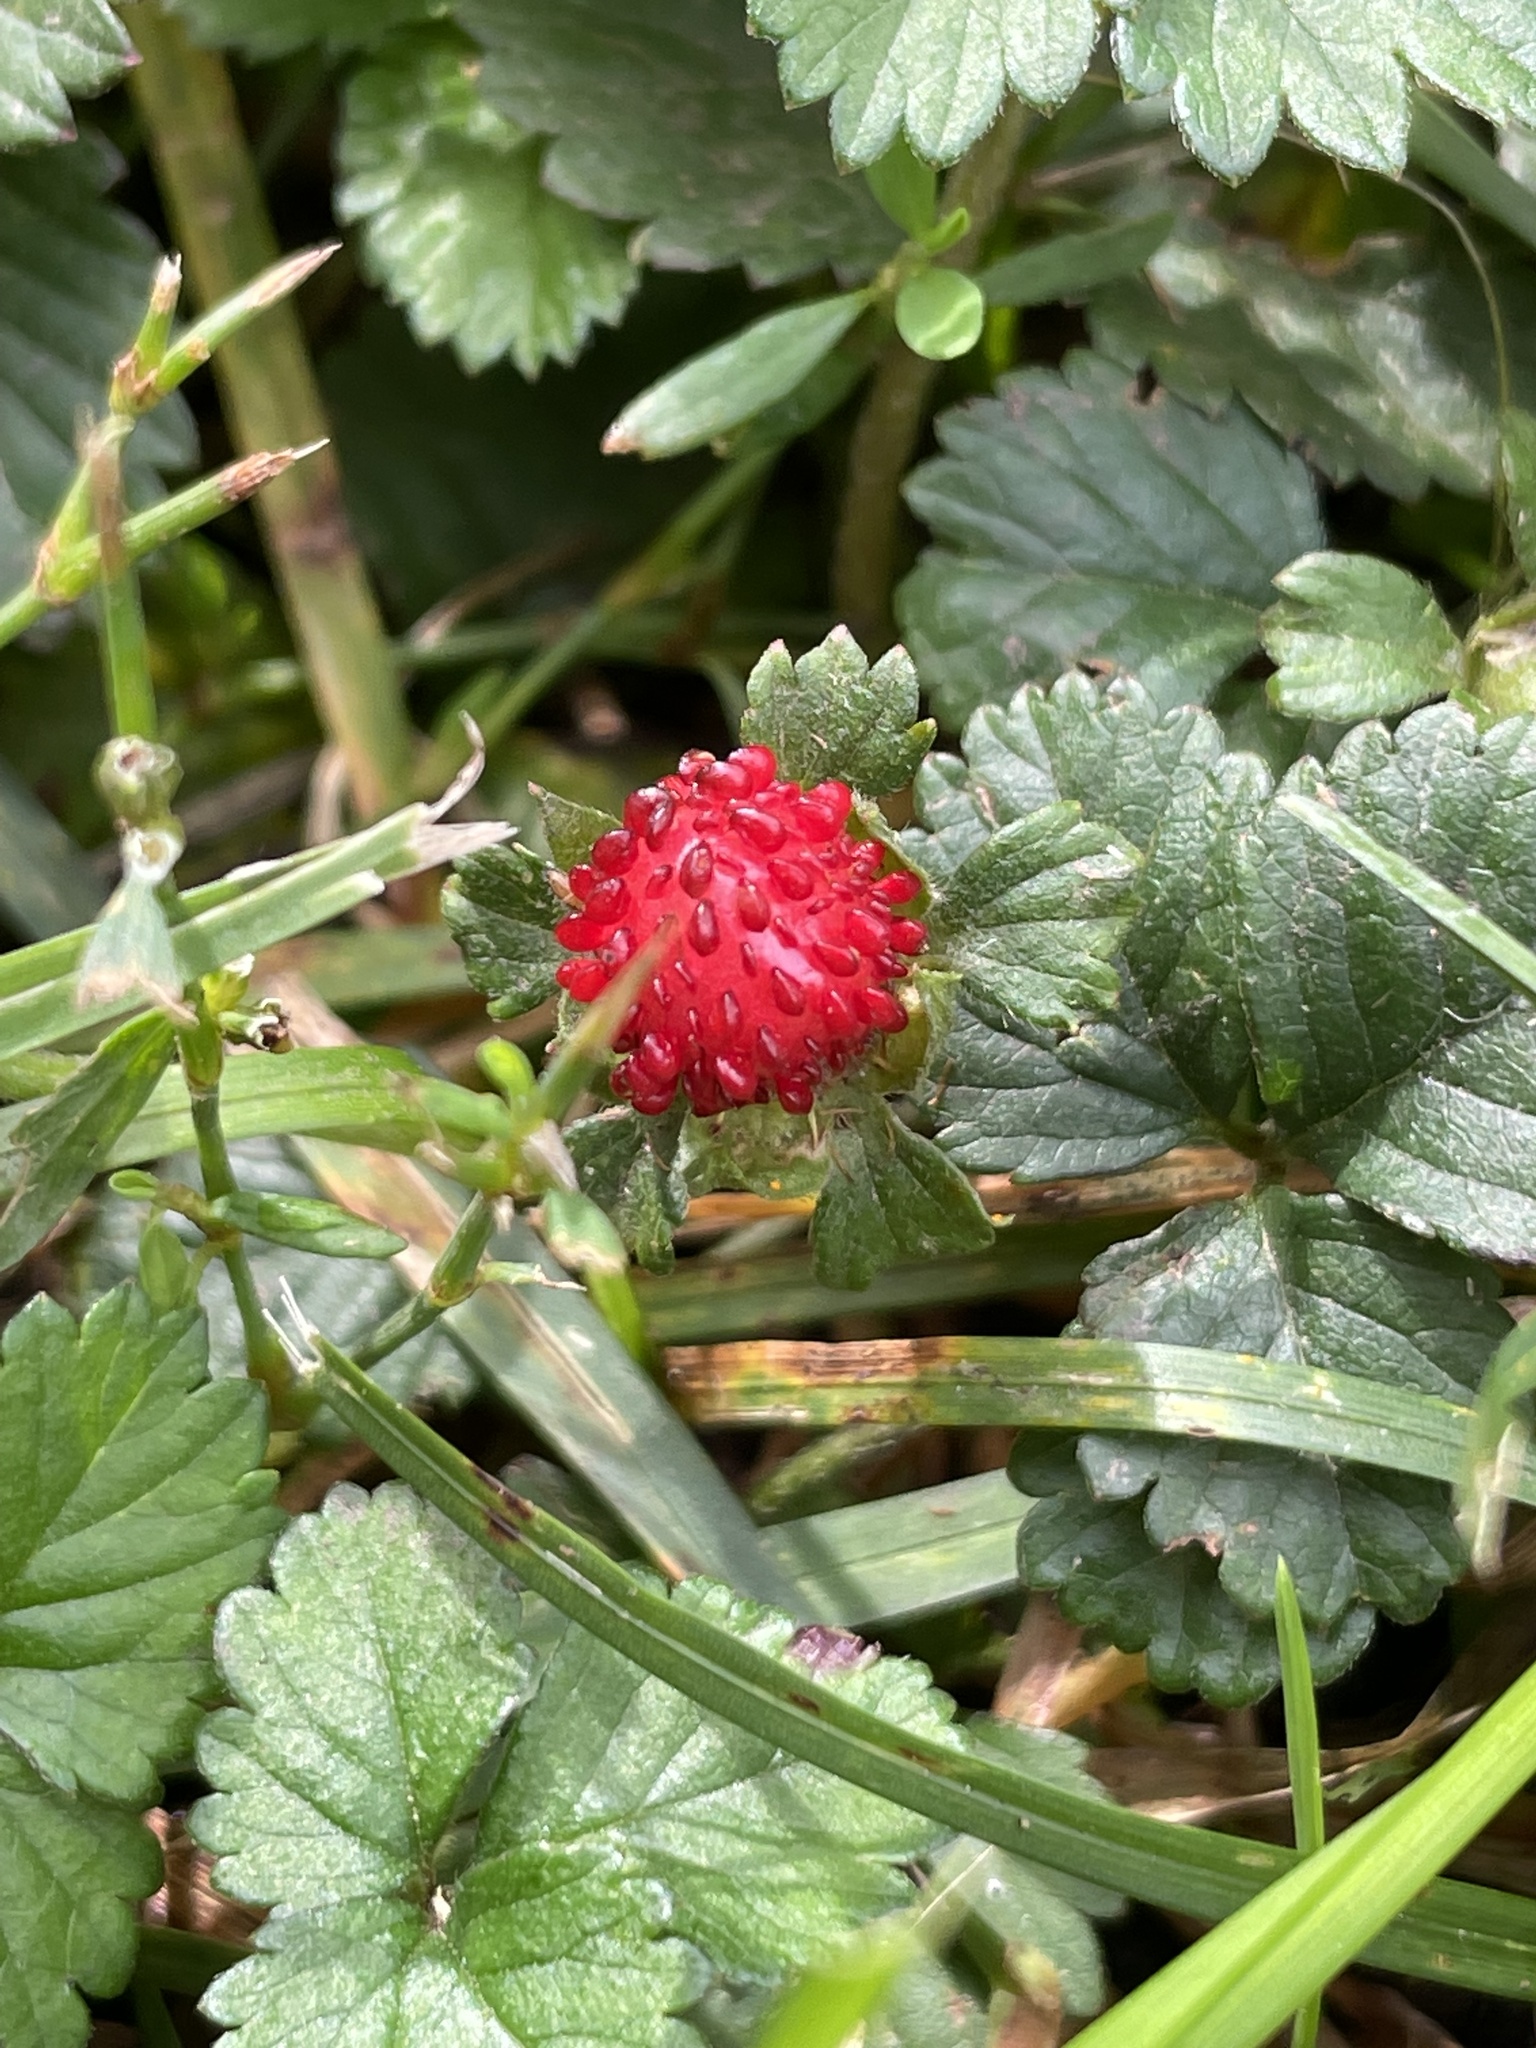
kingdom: Plantae
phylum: Tracheophyta
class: Magnoliopsida
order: Rosales
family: Rosaceae
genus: Potentilla
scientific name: Potentilla indica
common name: Yellow-flowered strawberry
